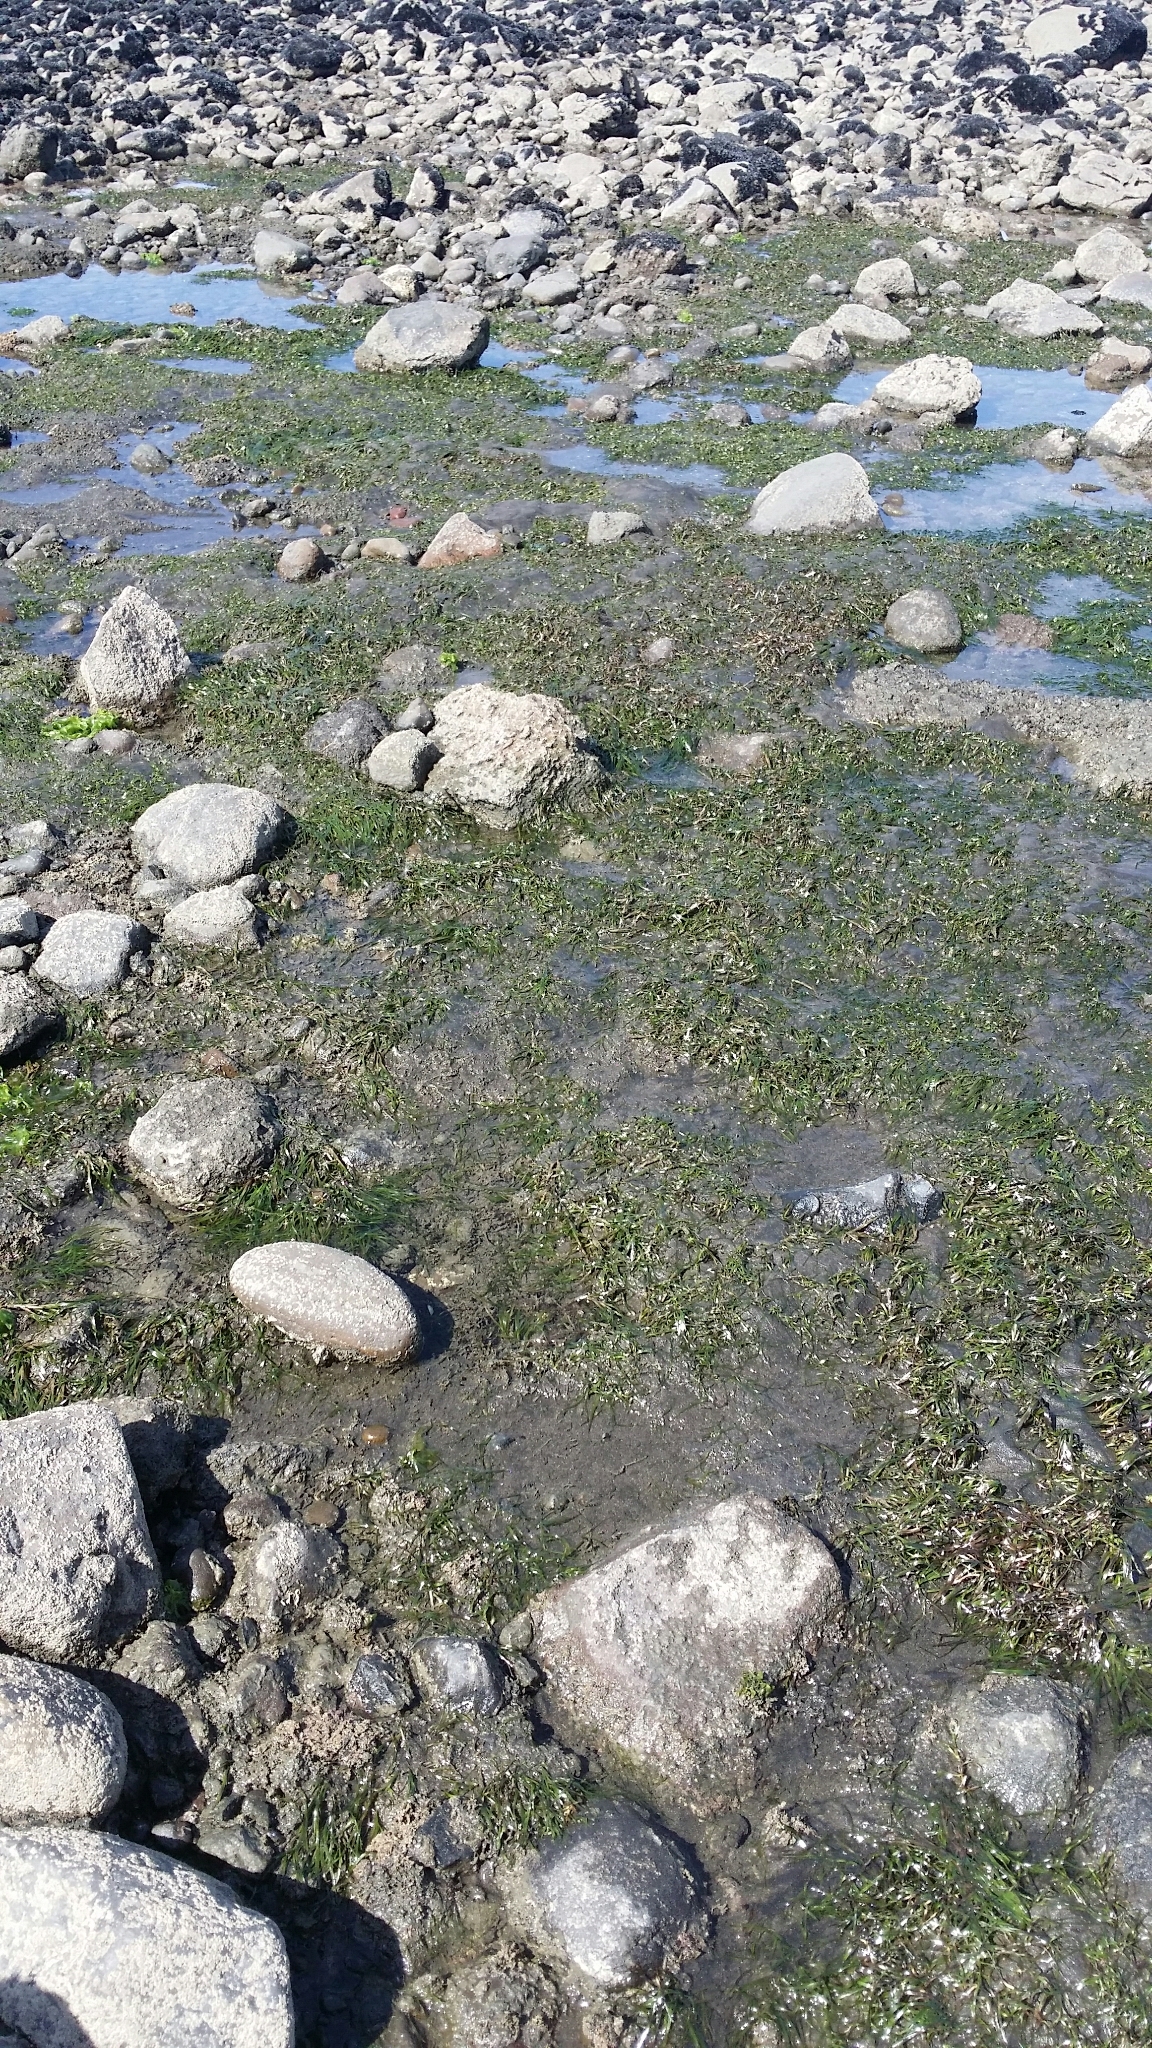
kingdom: Plantae
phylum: Tracheophyta
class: Liliopsida
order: Alismatales
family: Zosteraceae
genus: Zostera
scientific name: Zostera muelleri
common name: Species code: zc
